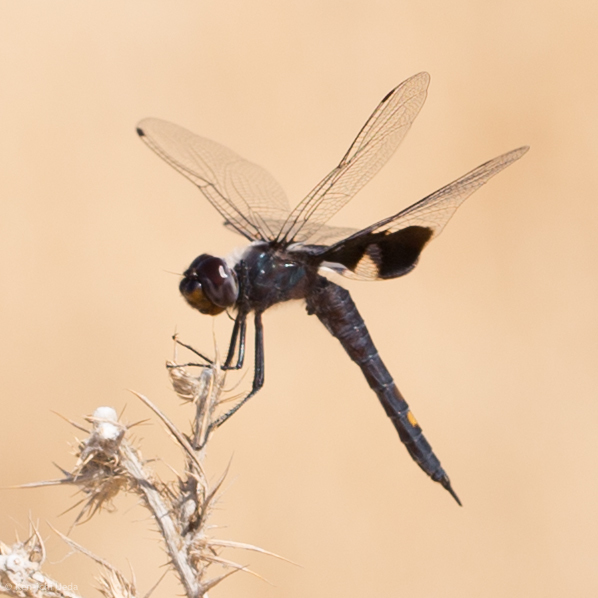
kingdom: Animalia
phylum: Arthropoda
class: Insecta
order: Odonata
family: Libellulidae
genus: Tramea
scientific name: Tramea lacerata
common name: Black saddlebags
